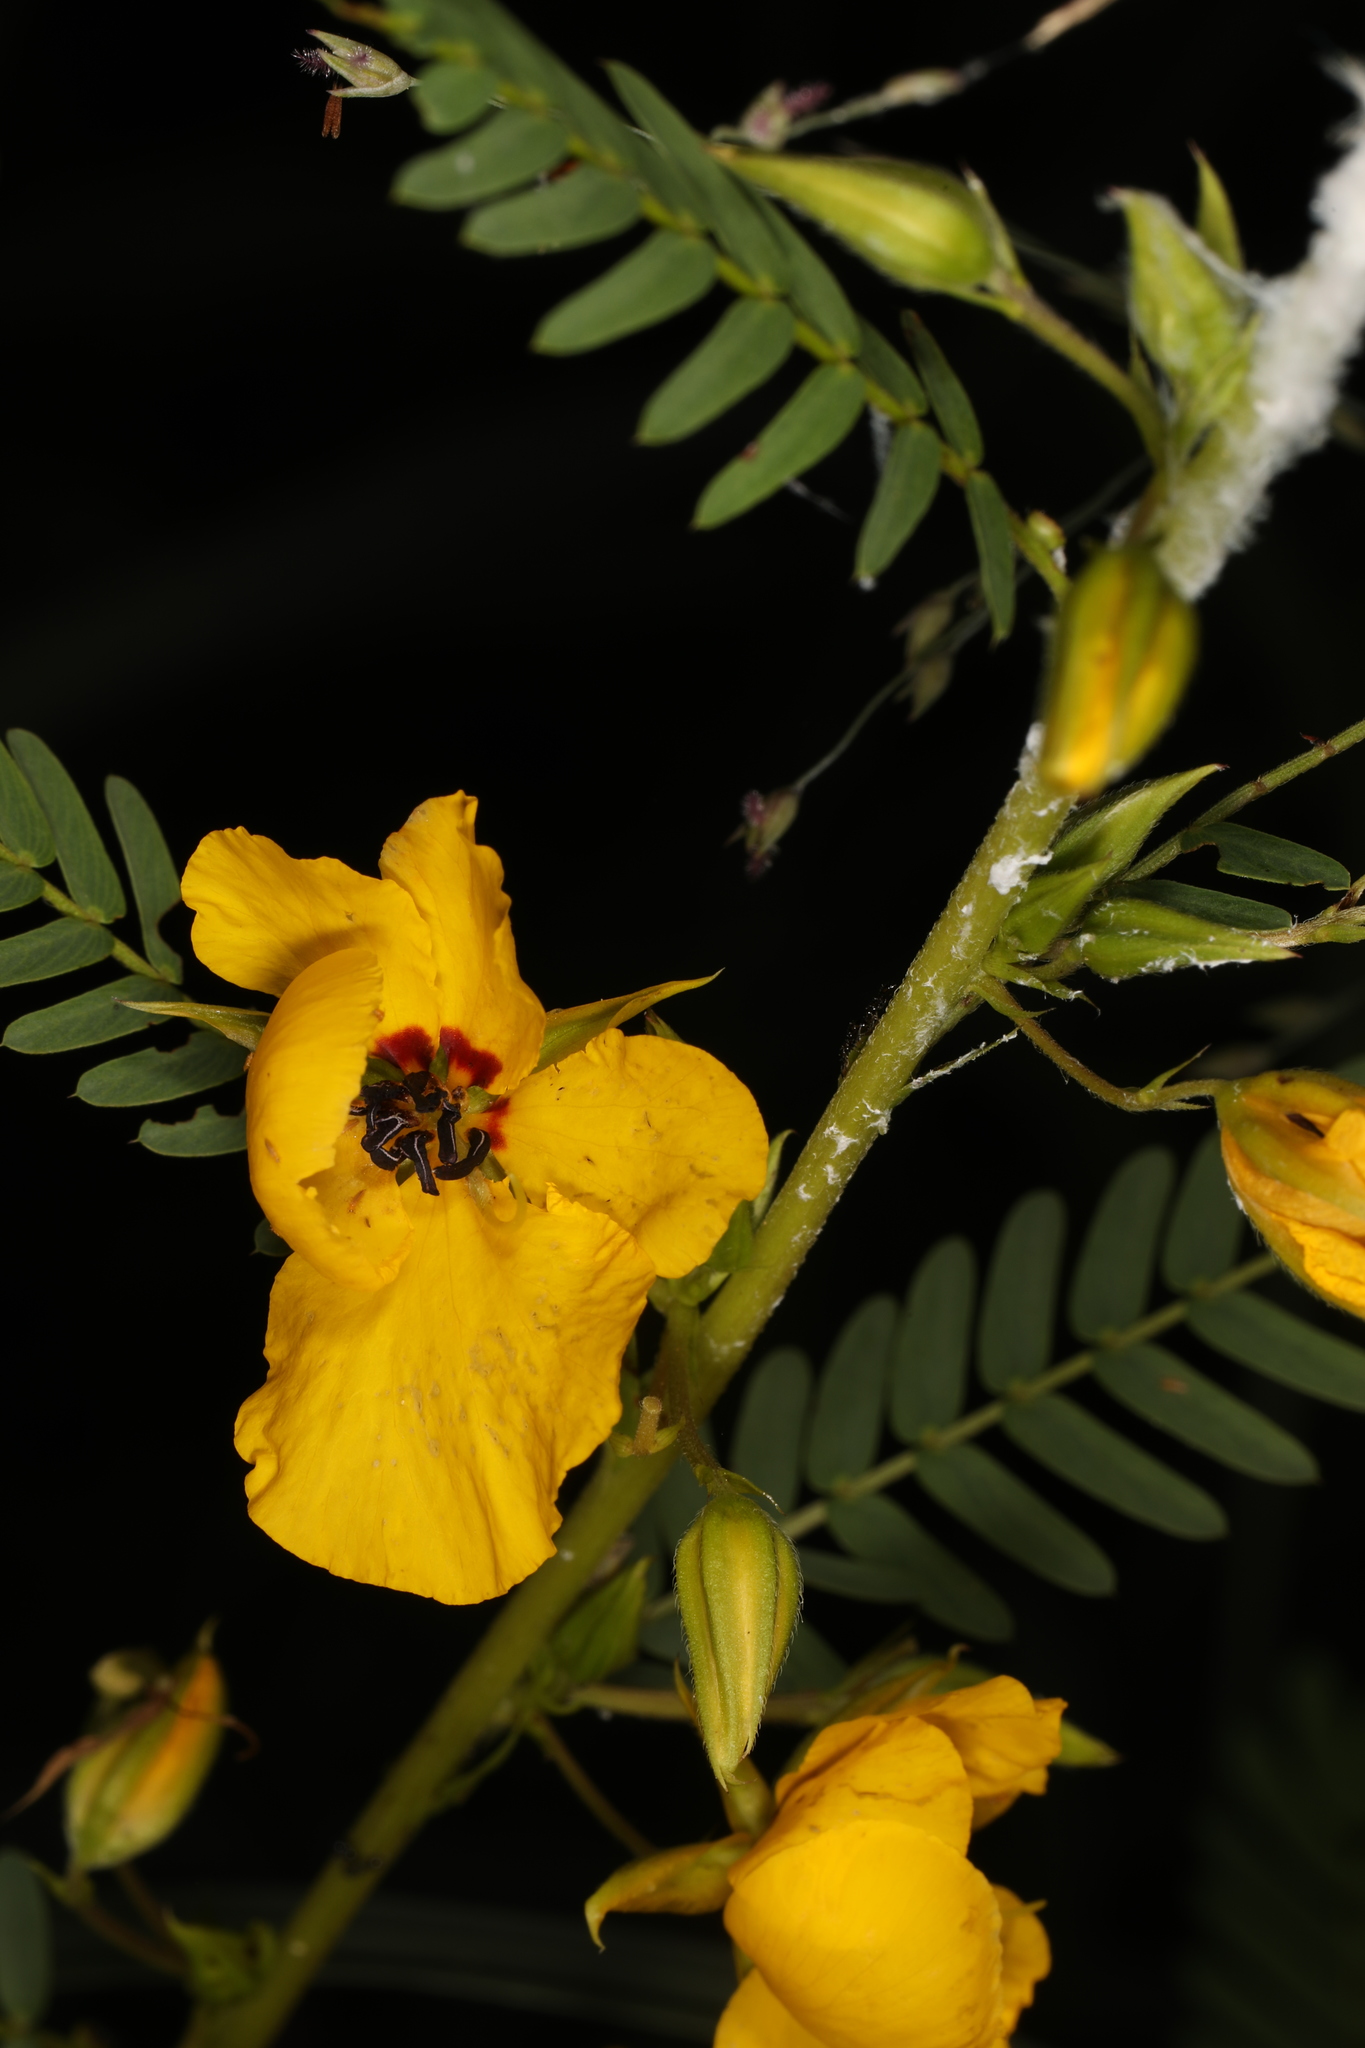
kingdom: Plantae
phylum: Tracheophyta
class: Magnoliopsida
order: Fabales
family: Fabaceae
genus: Chamaecrista
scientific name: Chamaecrista fasciculata
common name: Golden cassia
